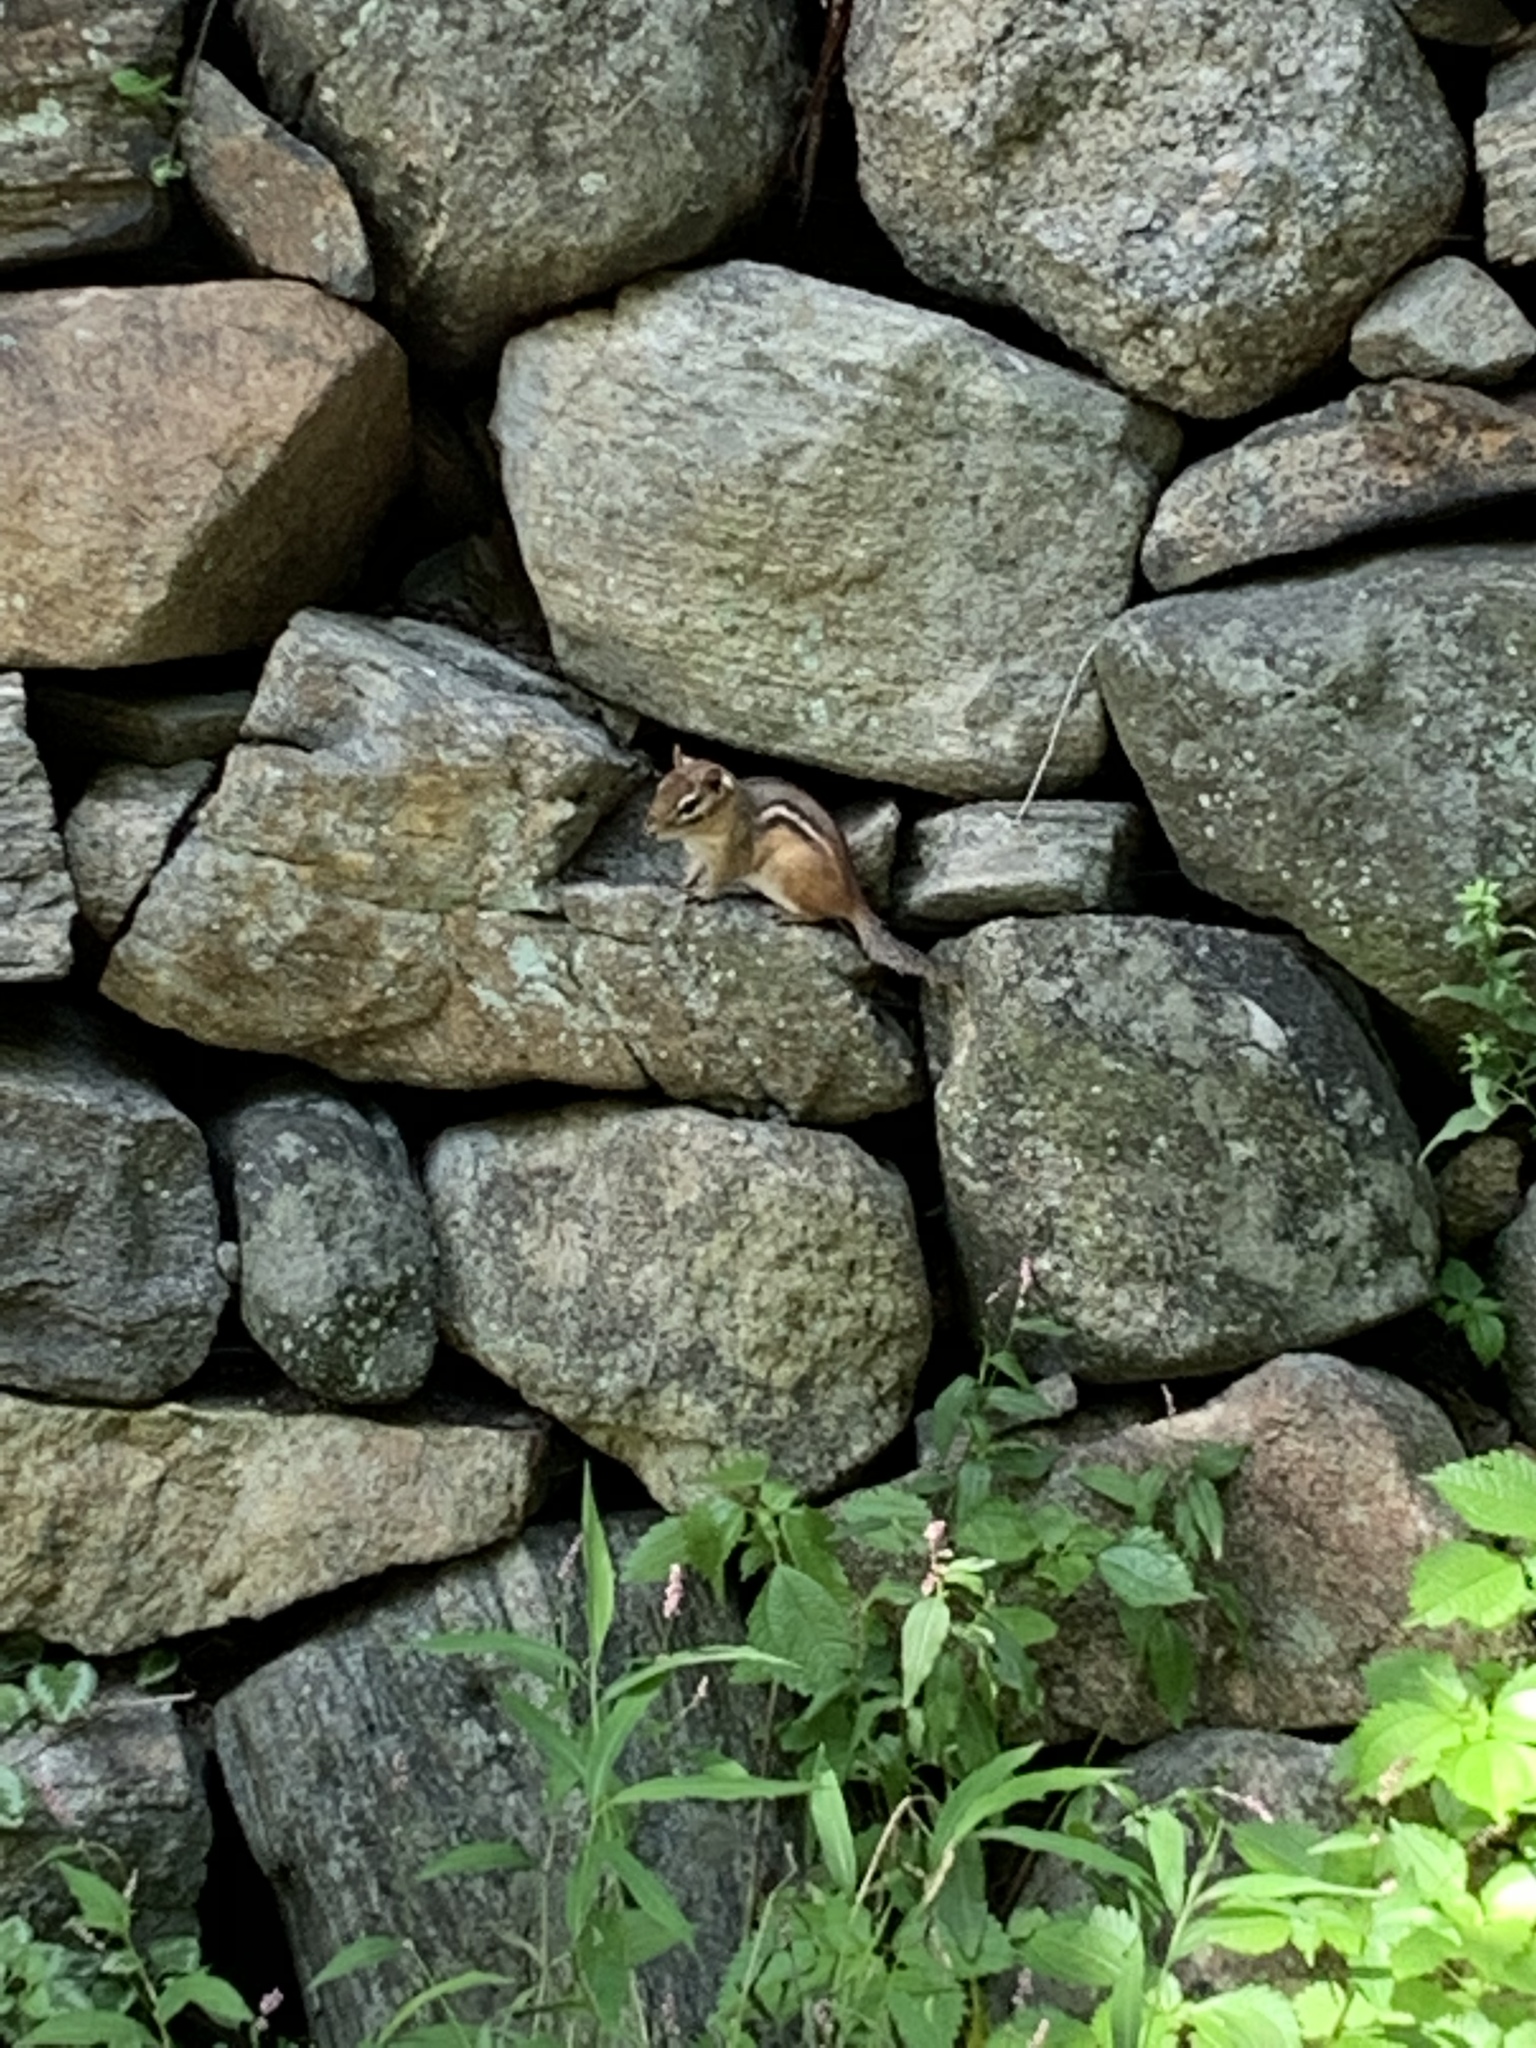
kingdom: Animalia
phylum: Chordata
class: Mammalia
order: Rodentia
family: Sciuridae
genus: Tamias
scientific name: Tamias striatus
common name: Eastern chipmunk
